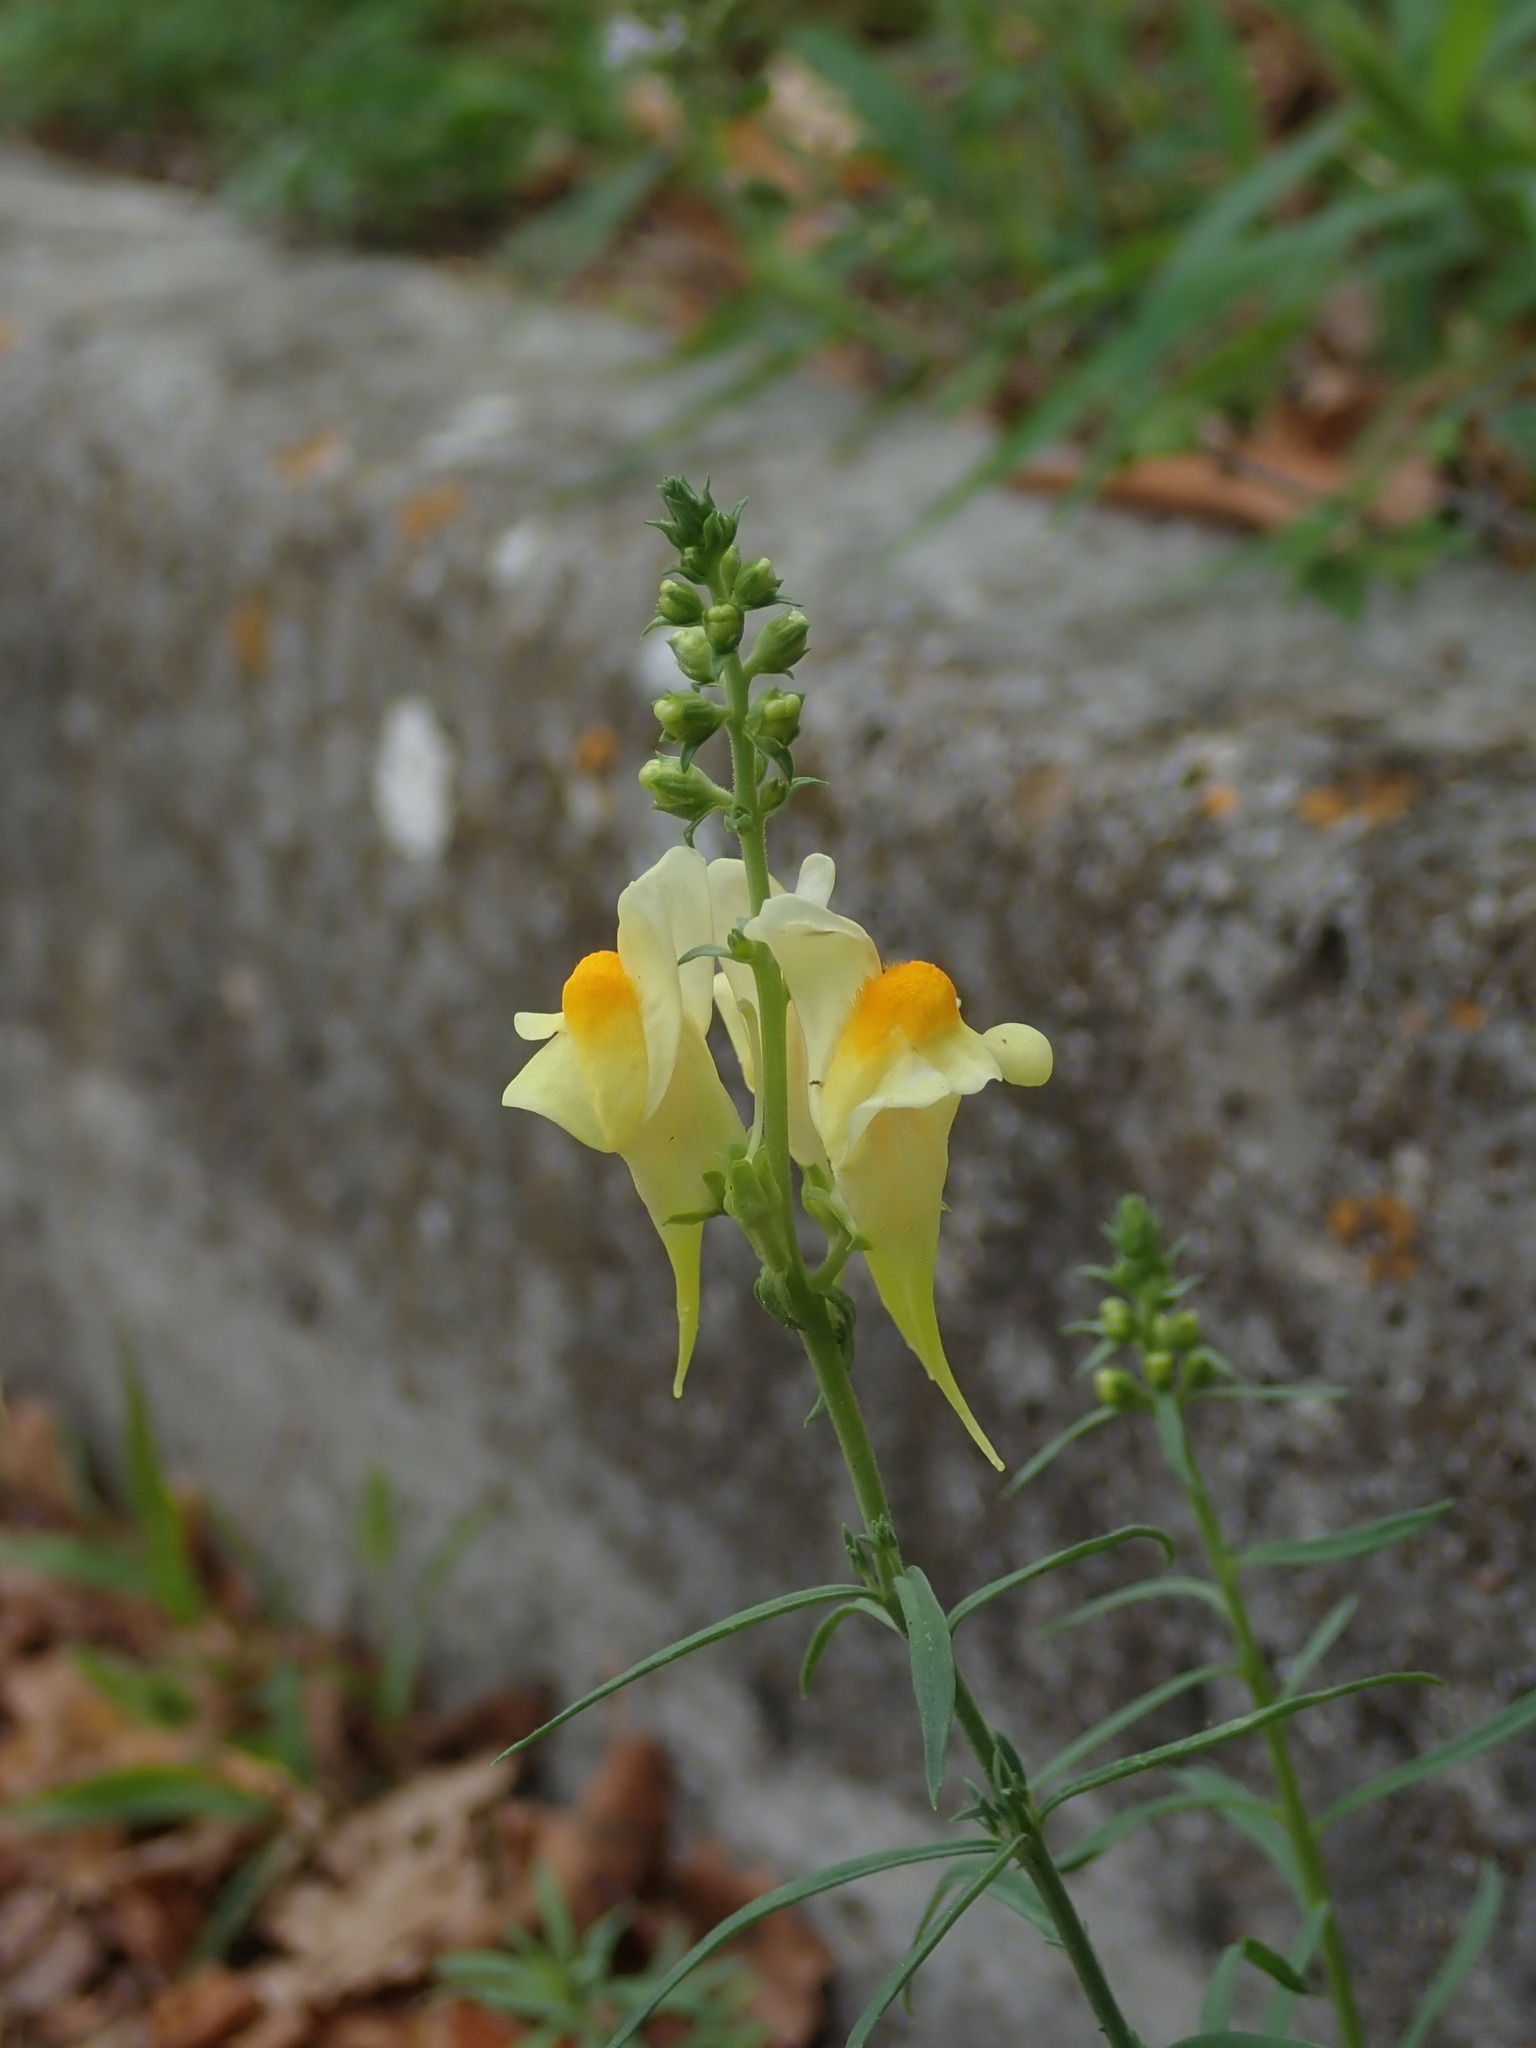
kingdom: Plantae
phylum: Tracheophyta
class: Magnoliopsida
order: Lamiales
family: Plantaginaceae
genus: Linaria
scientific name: Linaria vulgaris
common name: Butter and eggs
